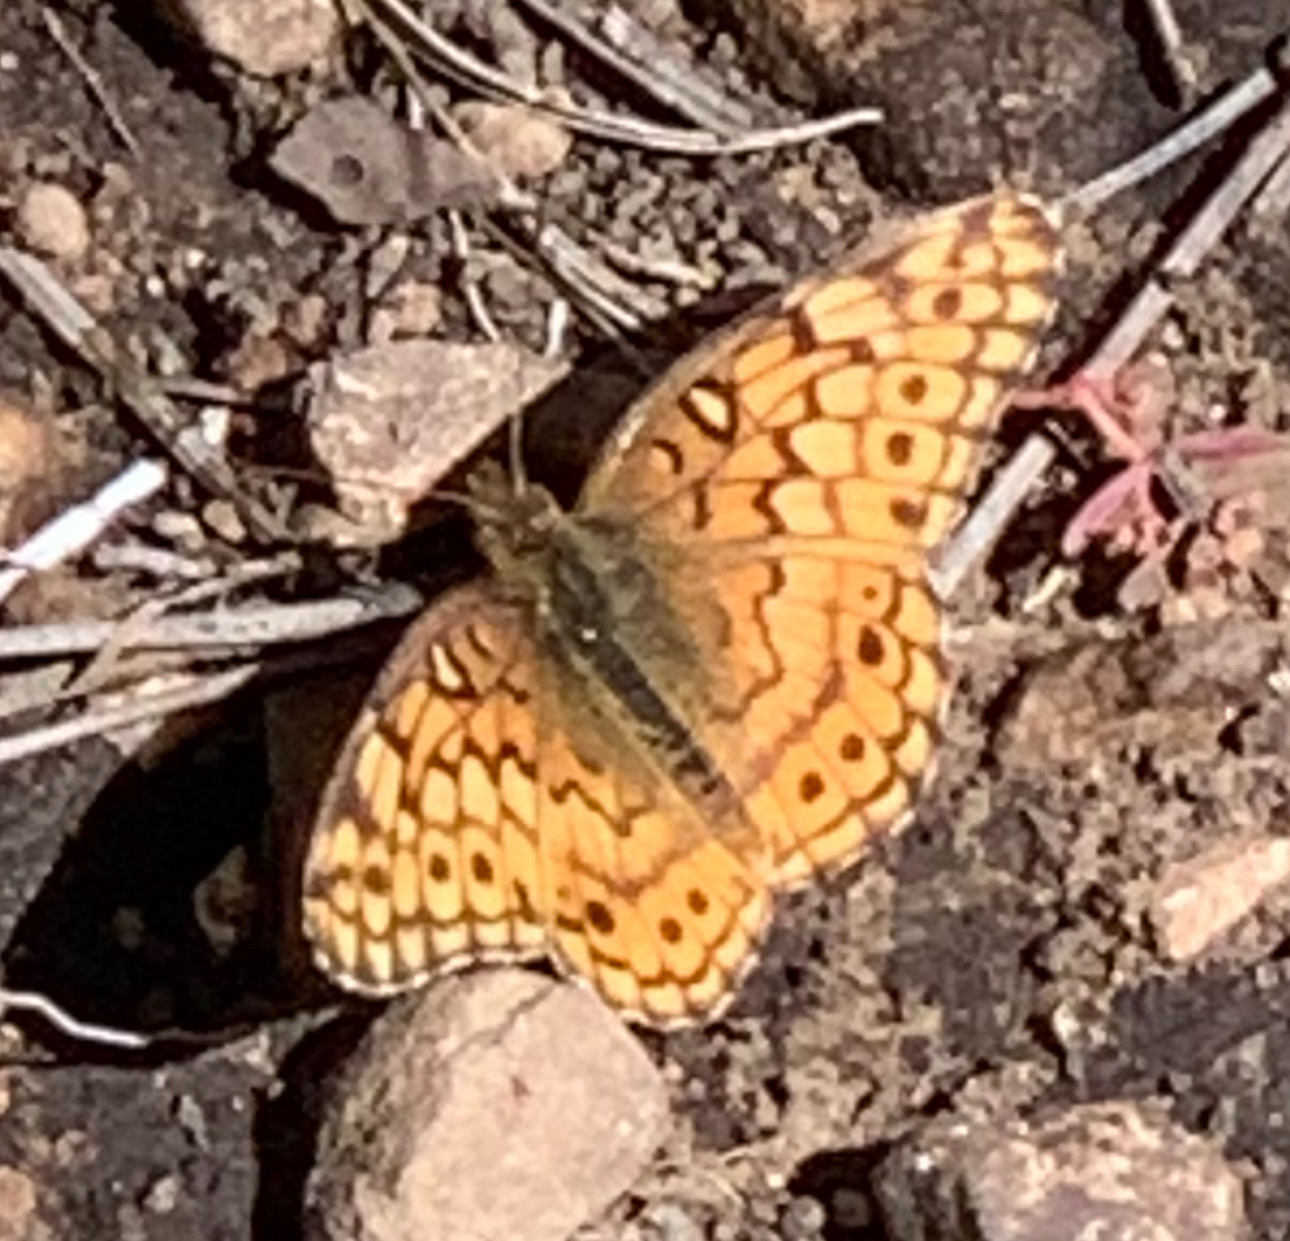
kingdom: Animalia
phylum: Arthropoda
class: Insecta
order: Lepidoptera
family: Nymphalidae
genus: Euptoieta
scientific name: Euptoieta claudia
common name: Variegated fritillary
